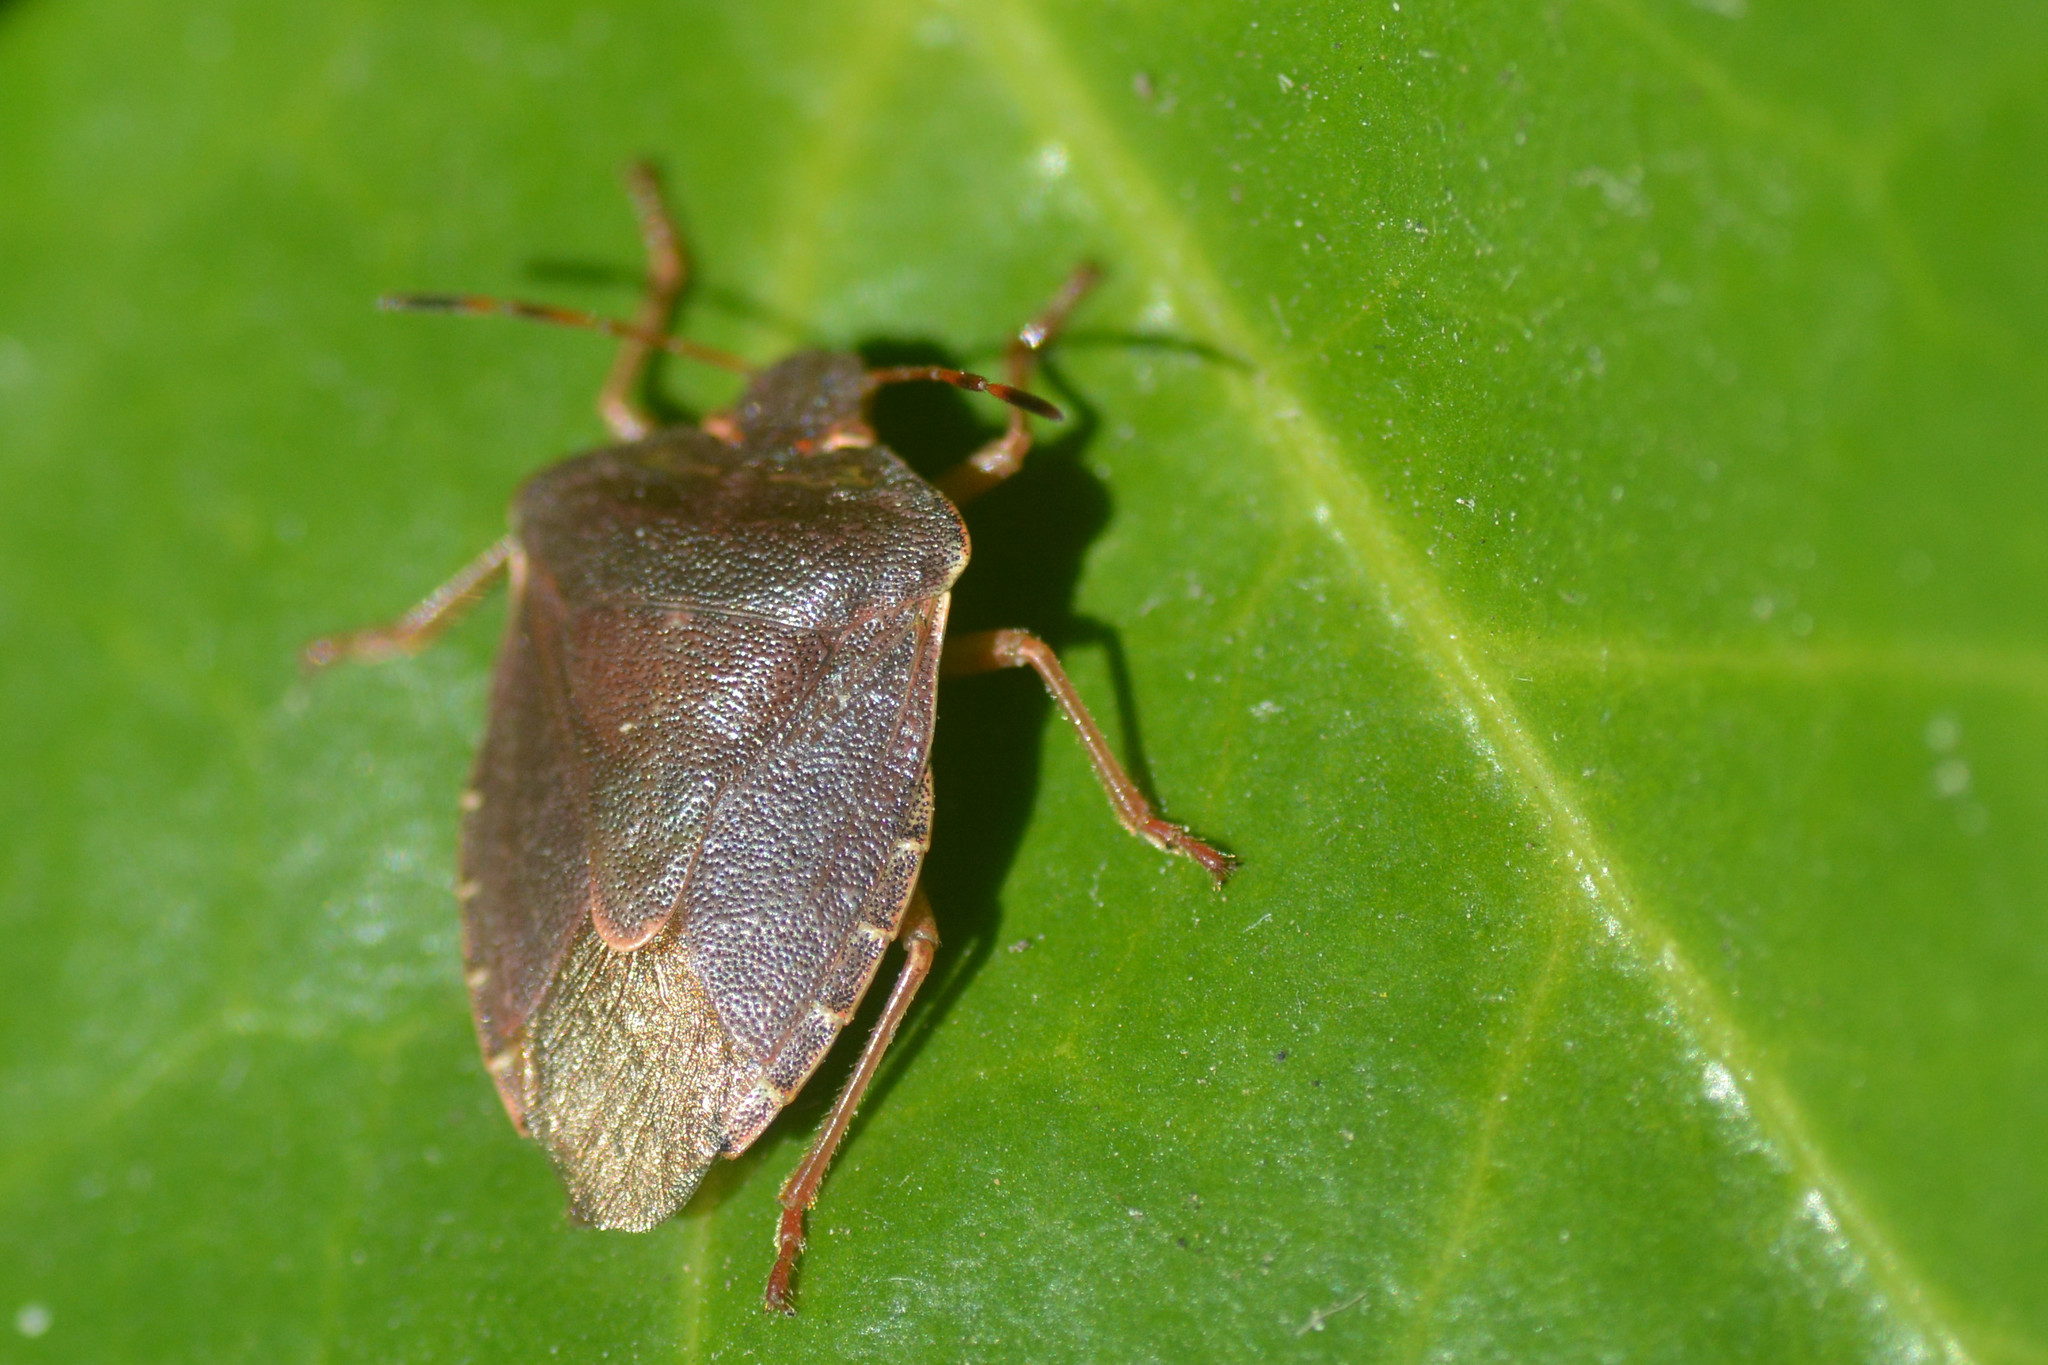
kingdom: Animalia
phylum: Arthropoda
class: Insecta
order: Hemiptera
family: Pentatomidae
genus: Palomena
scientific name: Palomena prasina
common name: Green shieldbug
